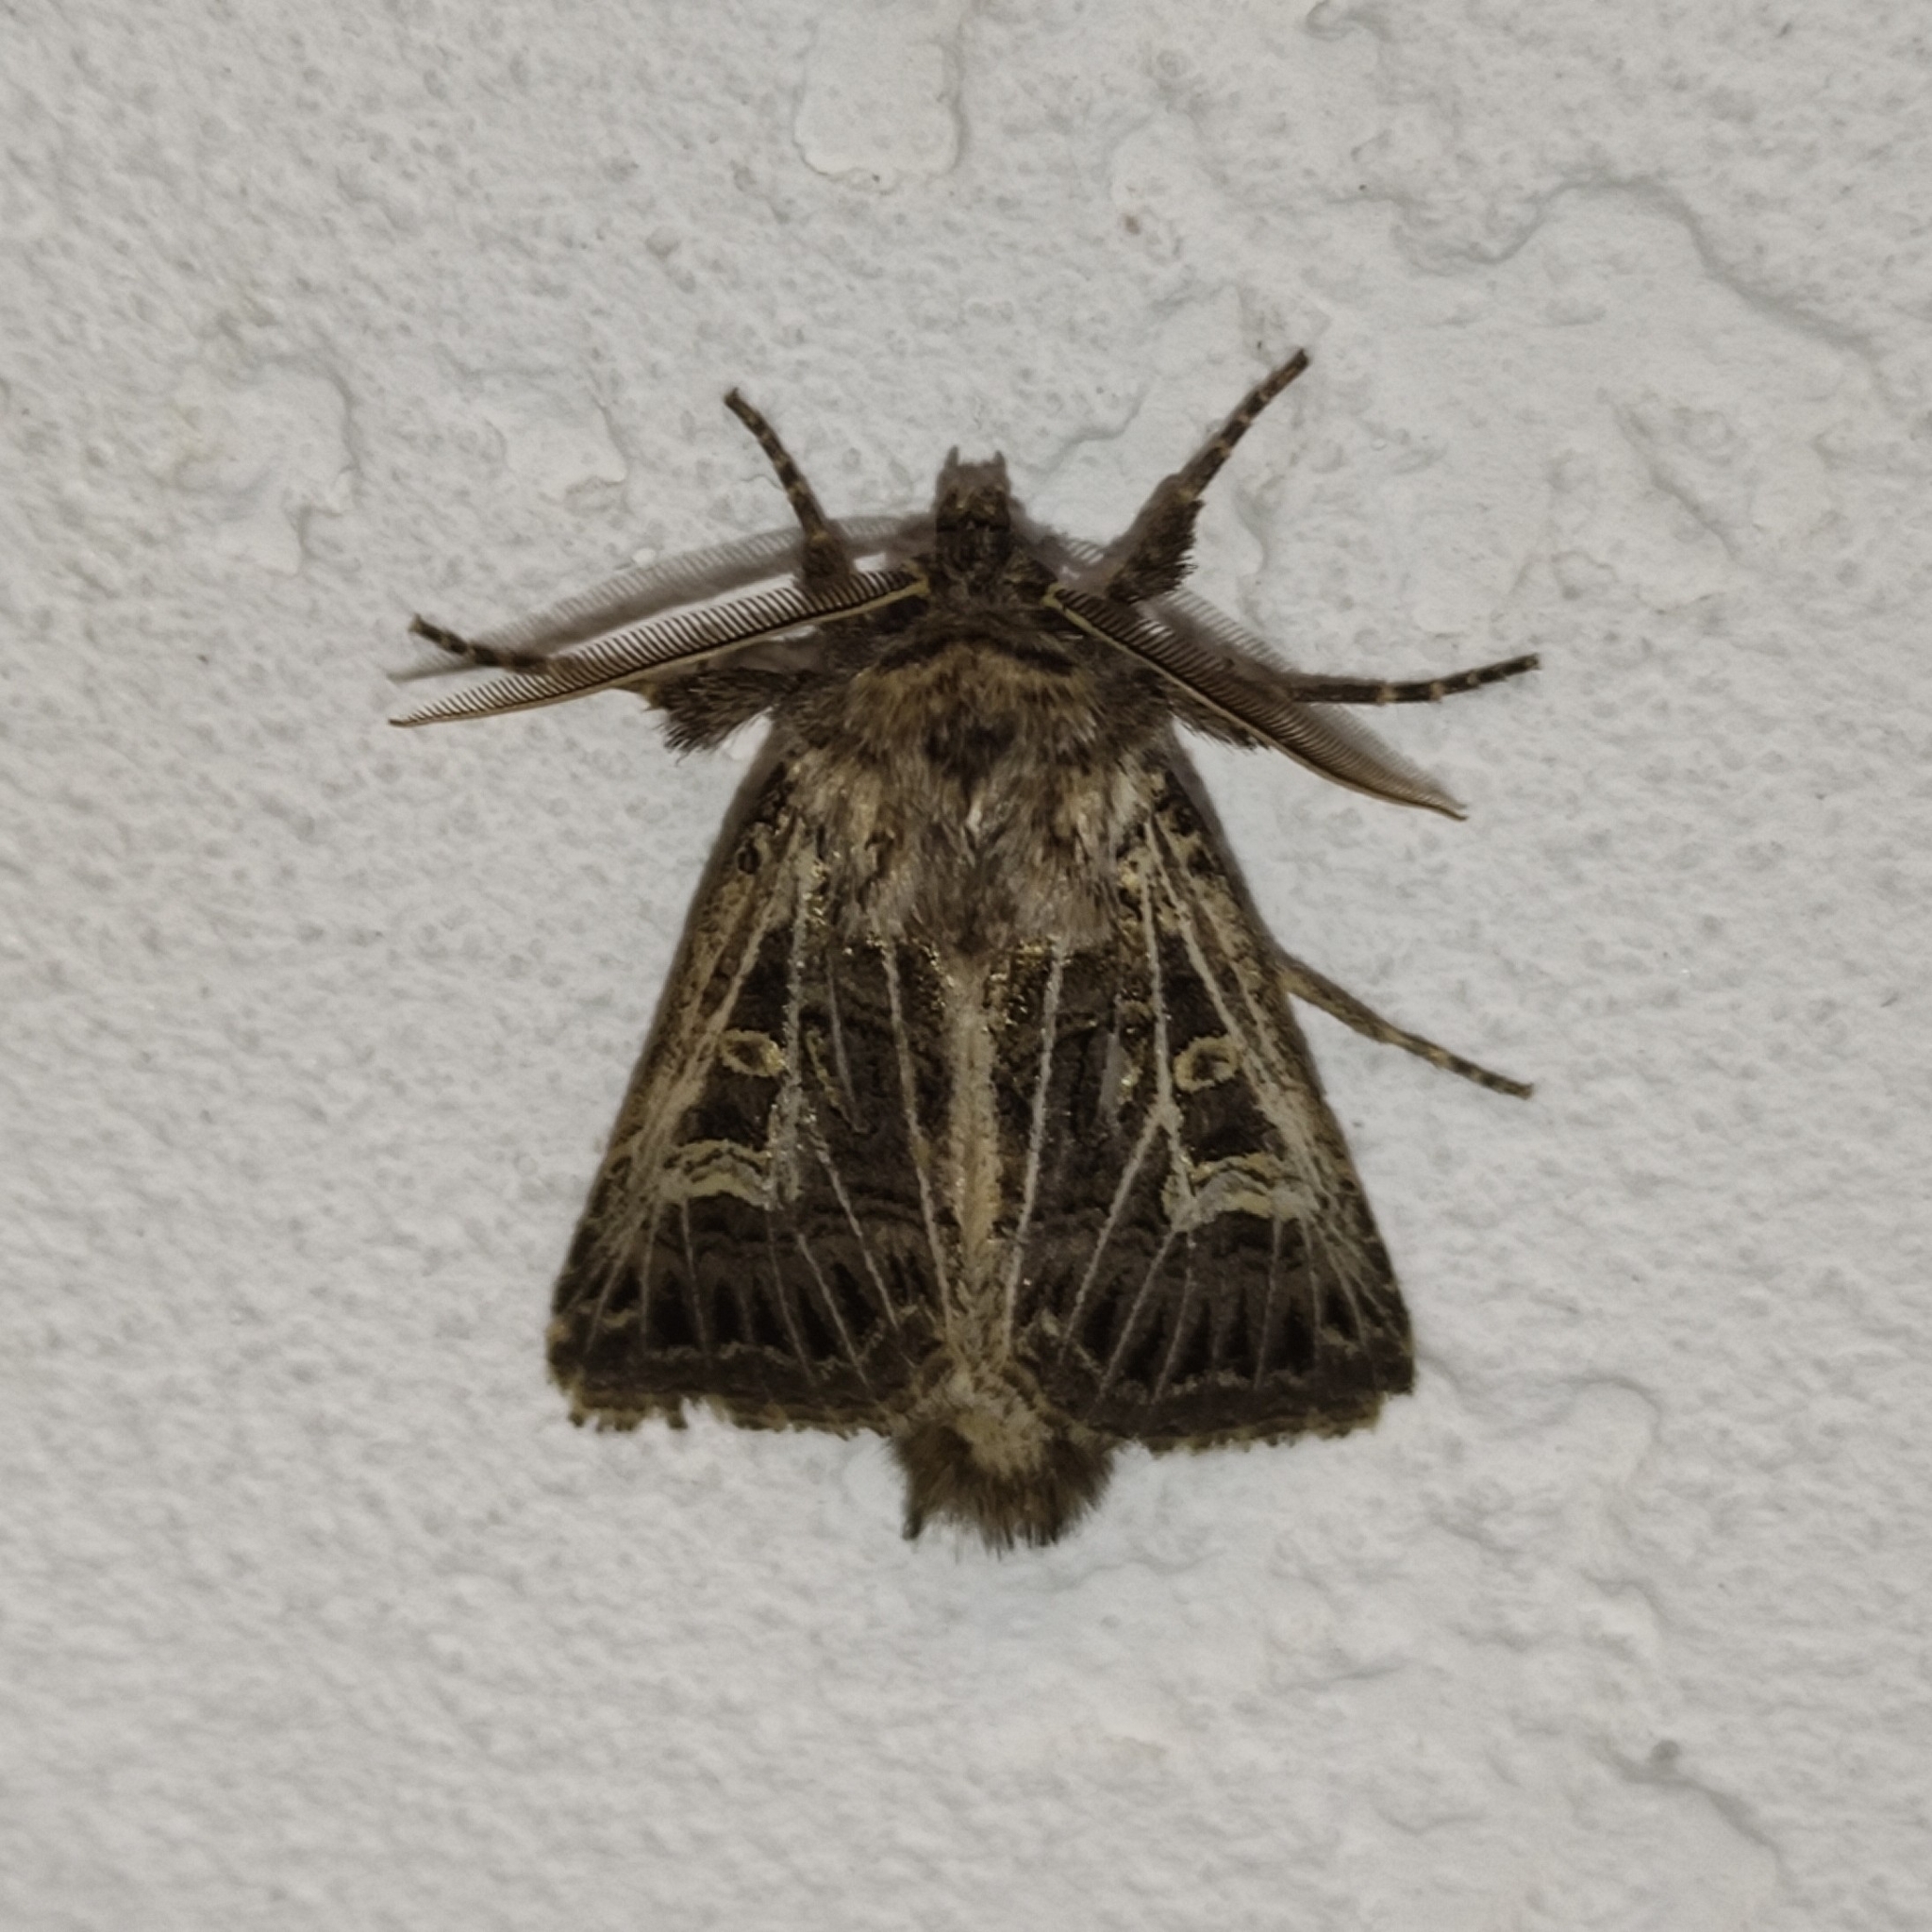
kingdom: Animalia
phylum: Arthropoda
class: Insecta
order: Lepidoptera
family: Noctuidae
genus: Tholera
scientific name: Tholera decimalis
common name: Feathered gothic
